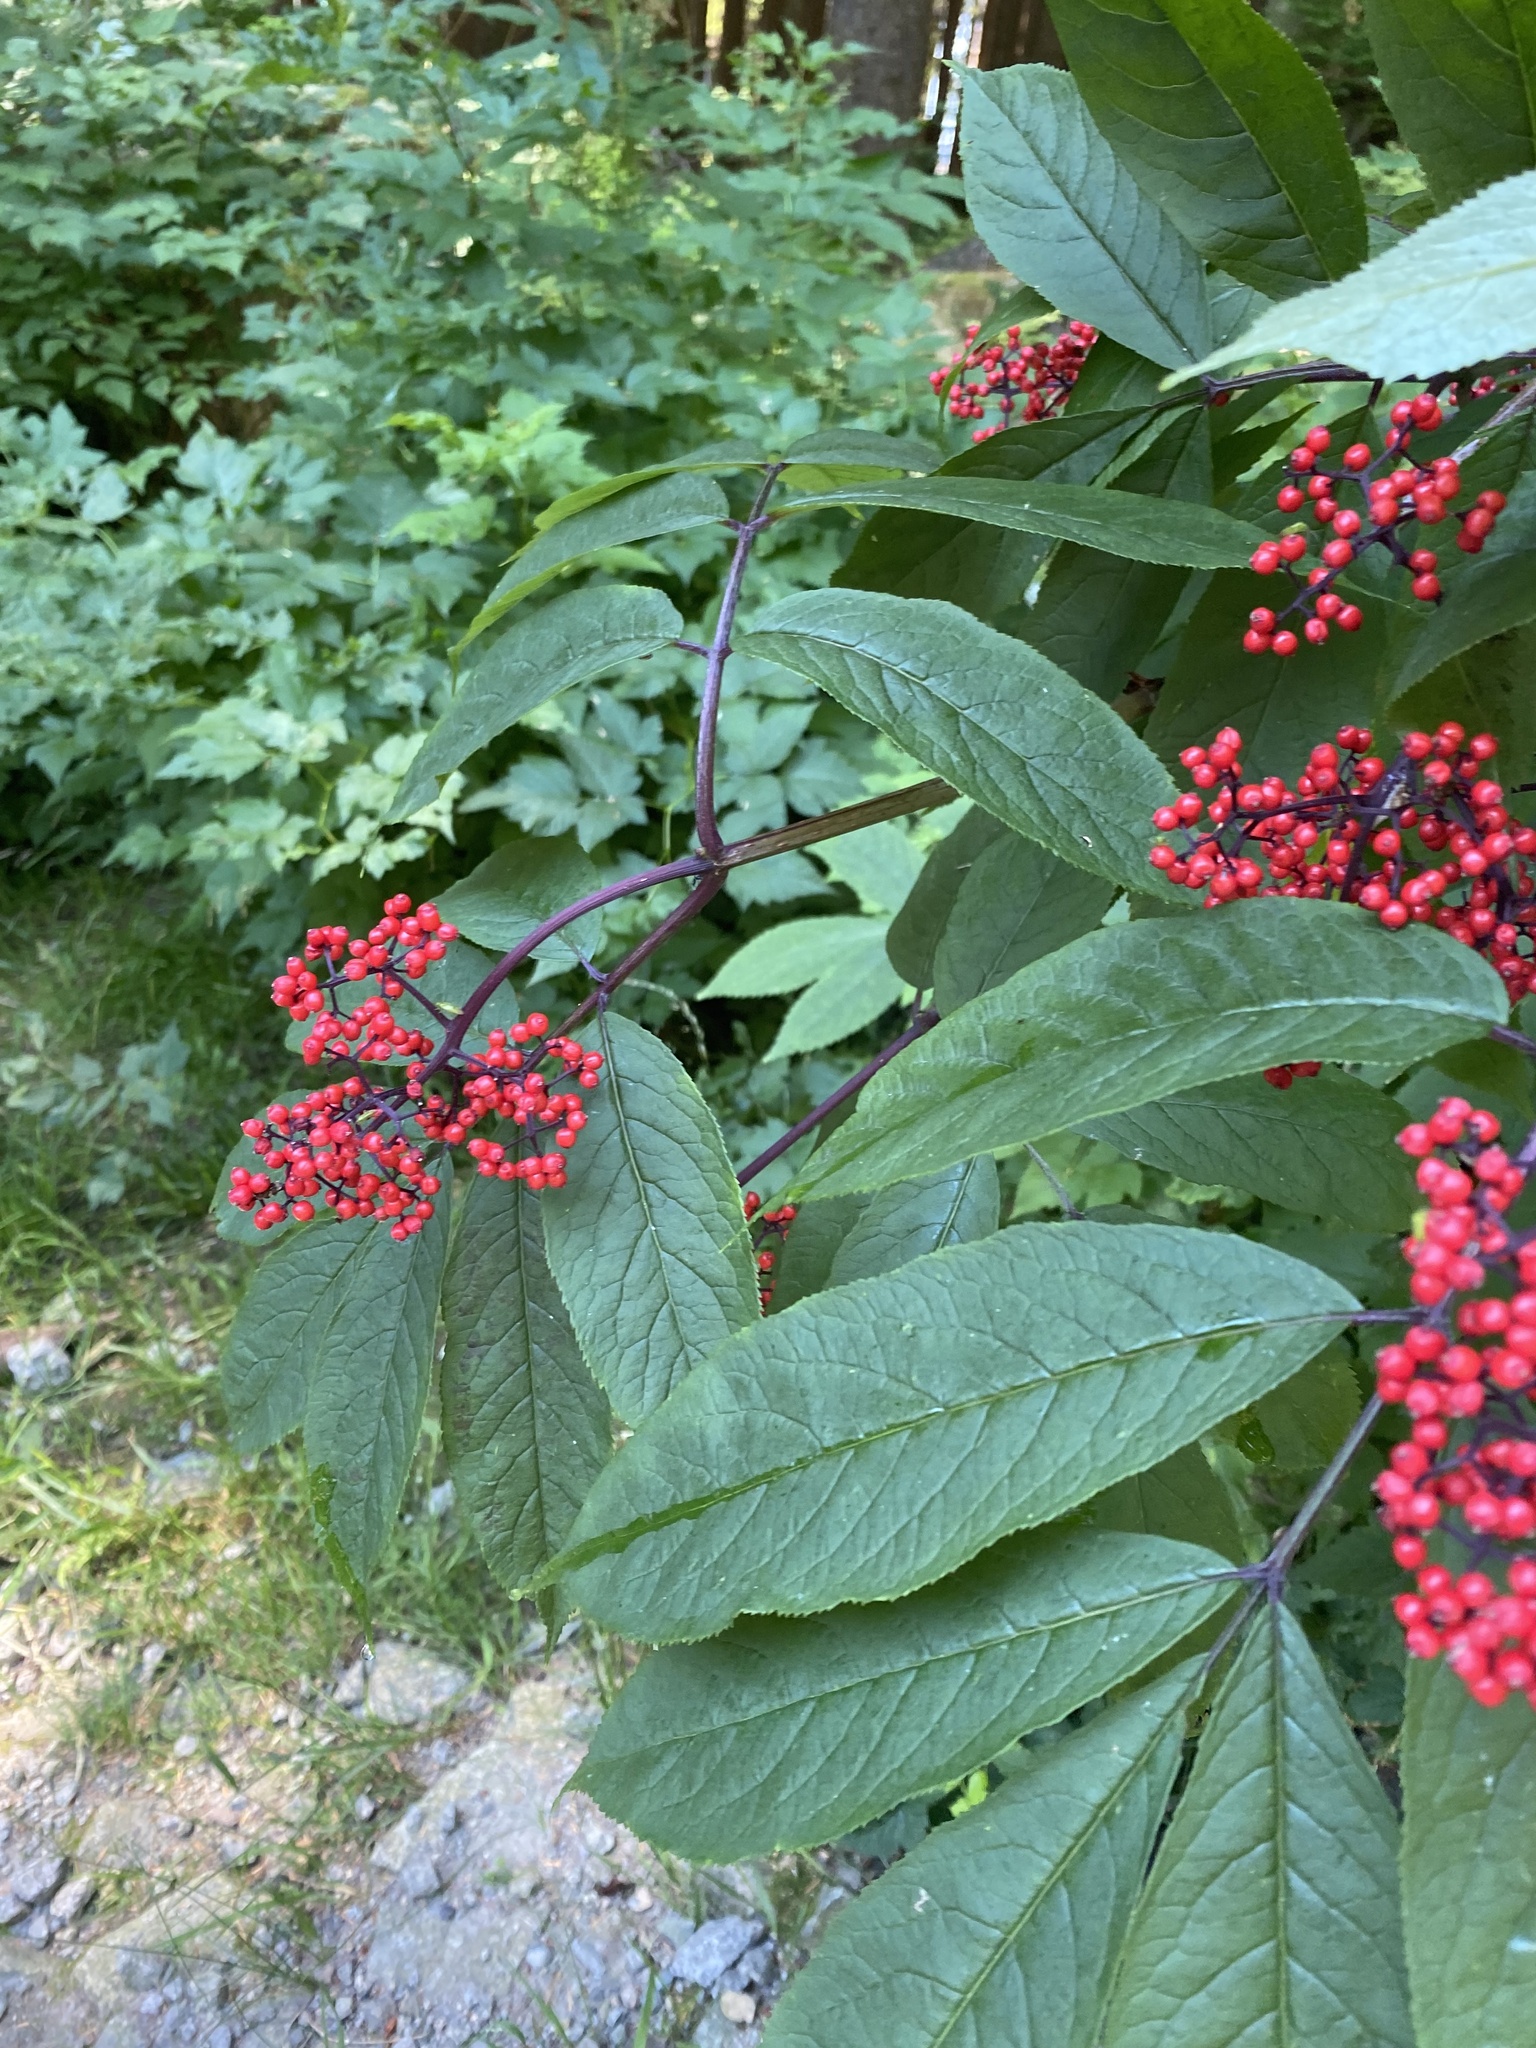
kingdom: Plantae
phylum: Tracheophyta
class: Magnoliopsida
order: Dipsacales
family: Viburnaceae
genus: Sambucus
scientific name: Sambucus racemosa
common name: Red-berried elder
